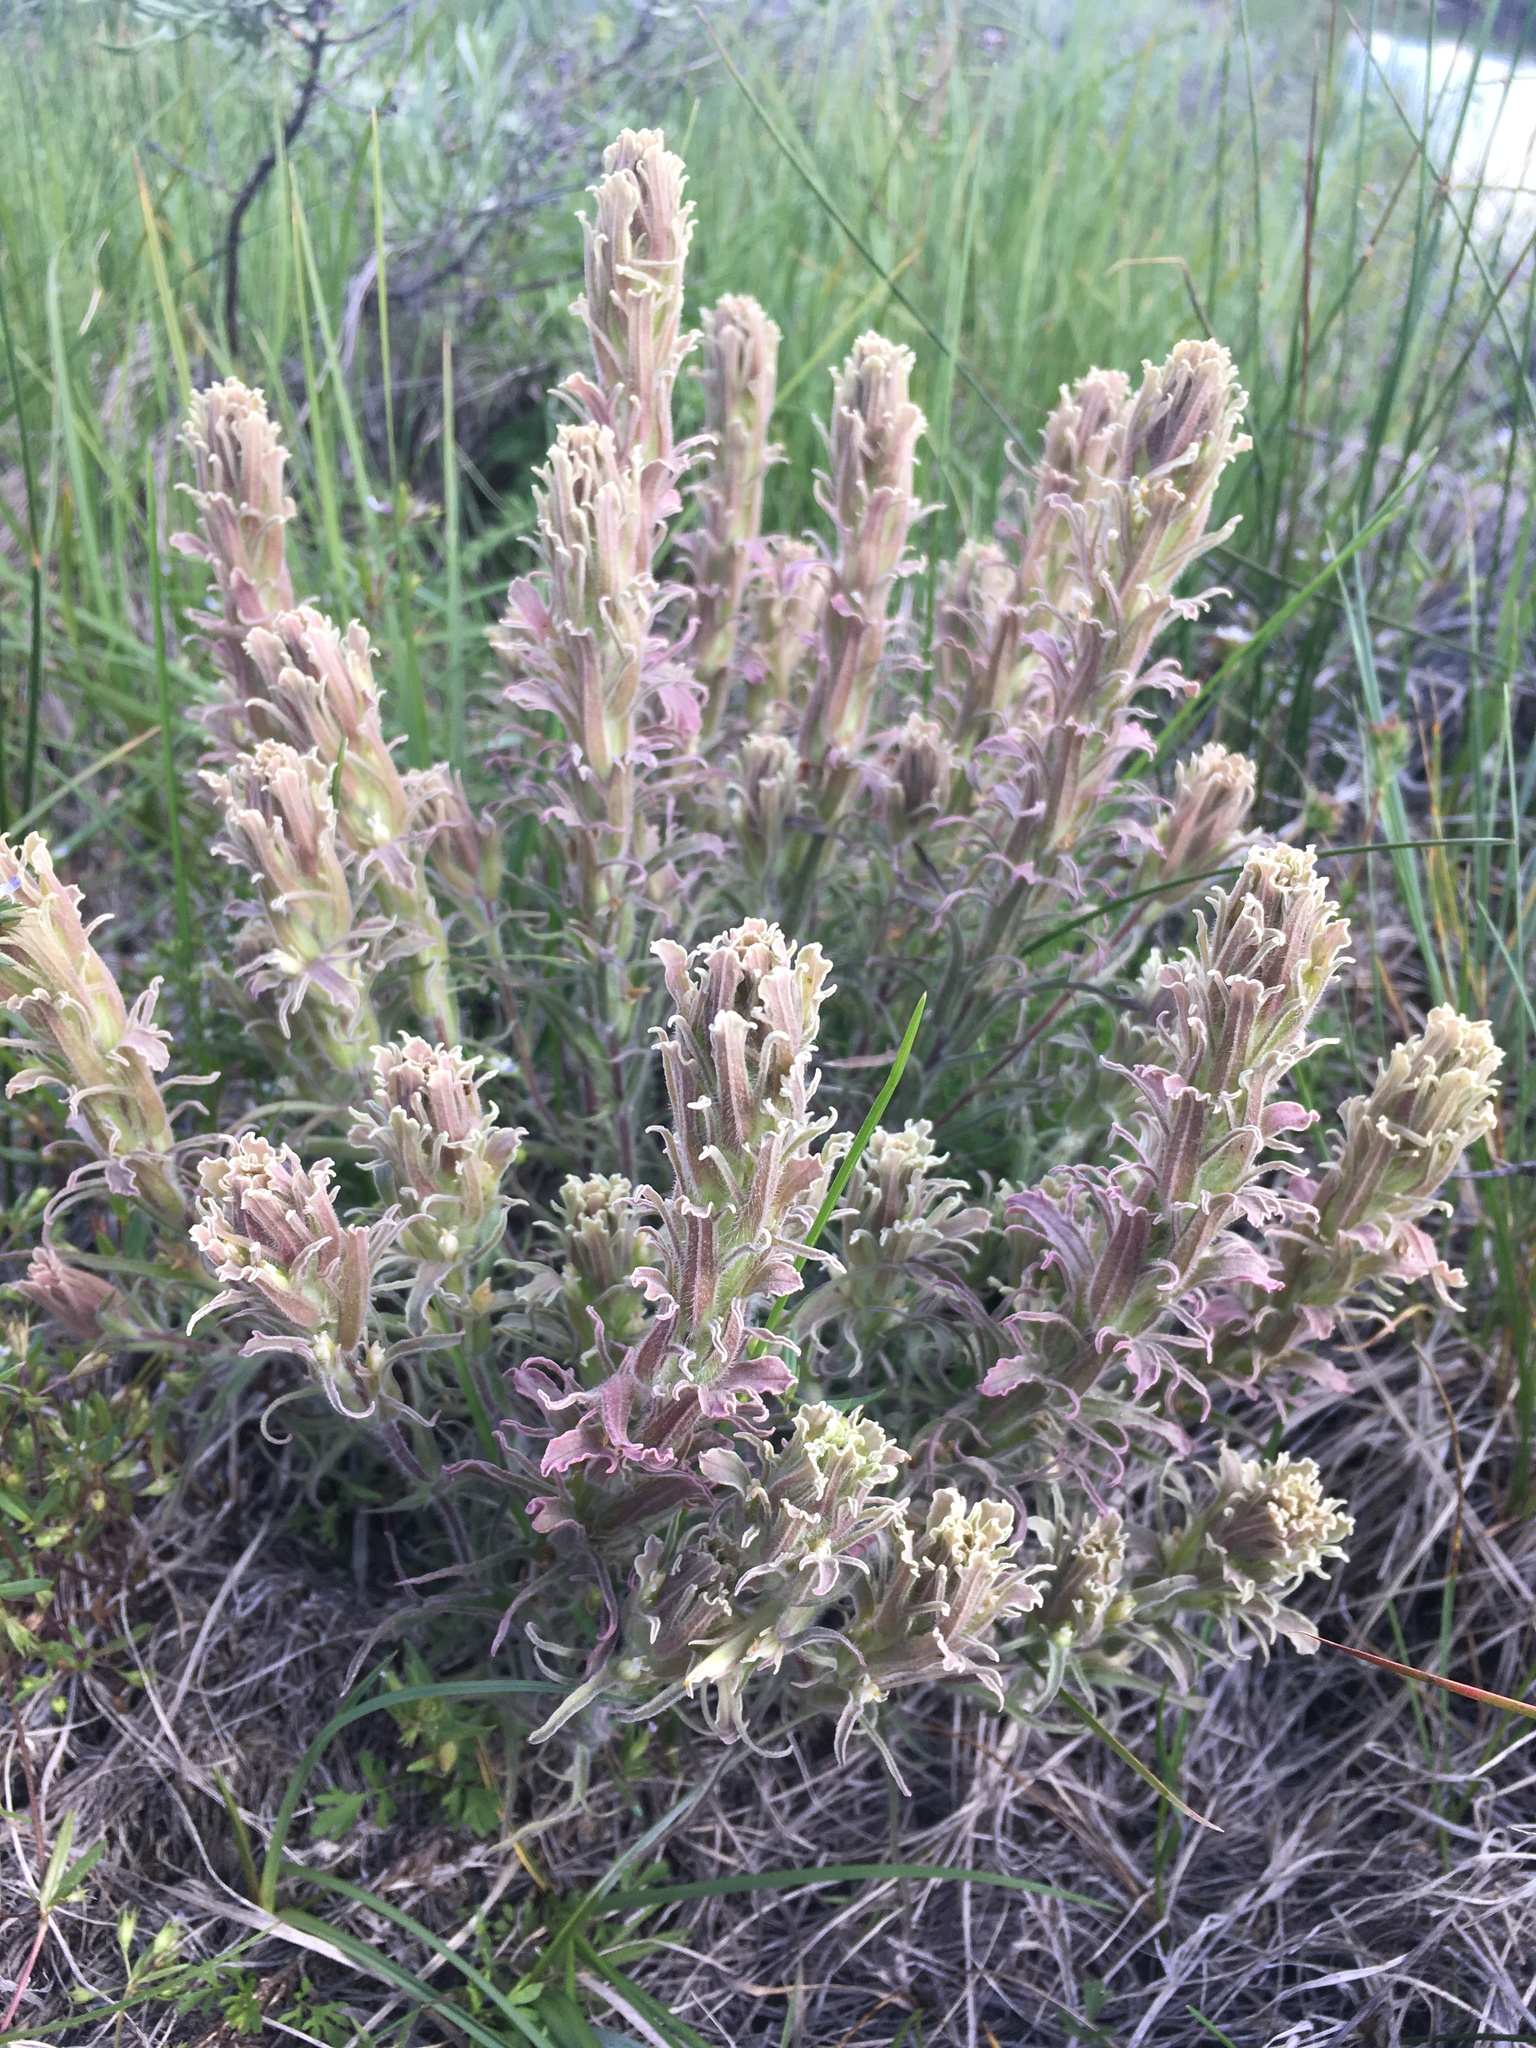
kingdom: Plantae
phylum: Tracheophyta
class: Magnoliopsida
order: Lamiales
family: Orobanchaceae
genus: Castilleja
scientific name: Castilleja pilosa
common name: Hairy paintbrush
